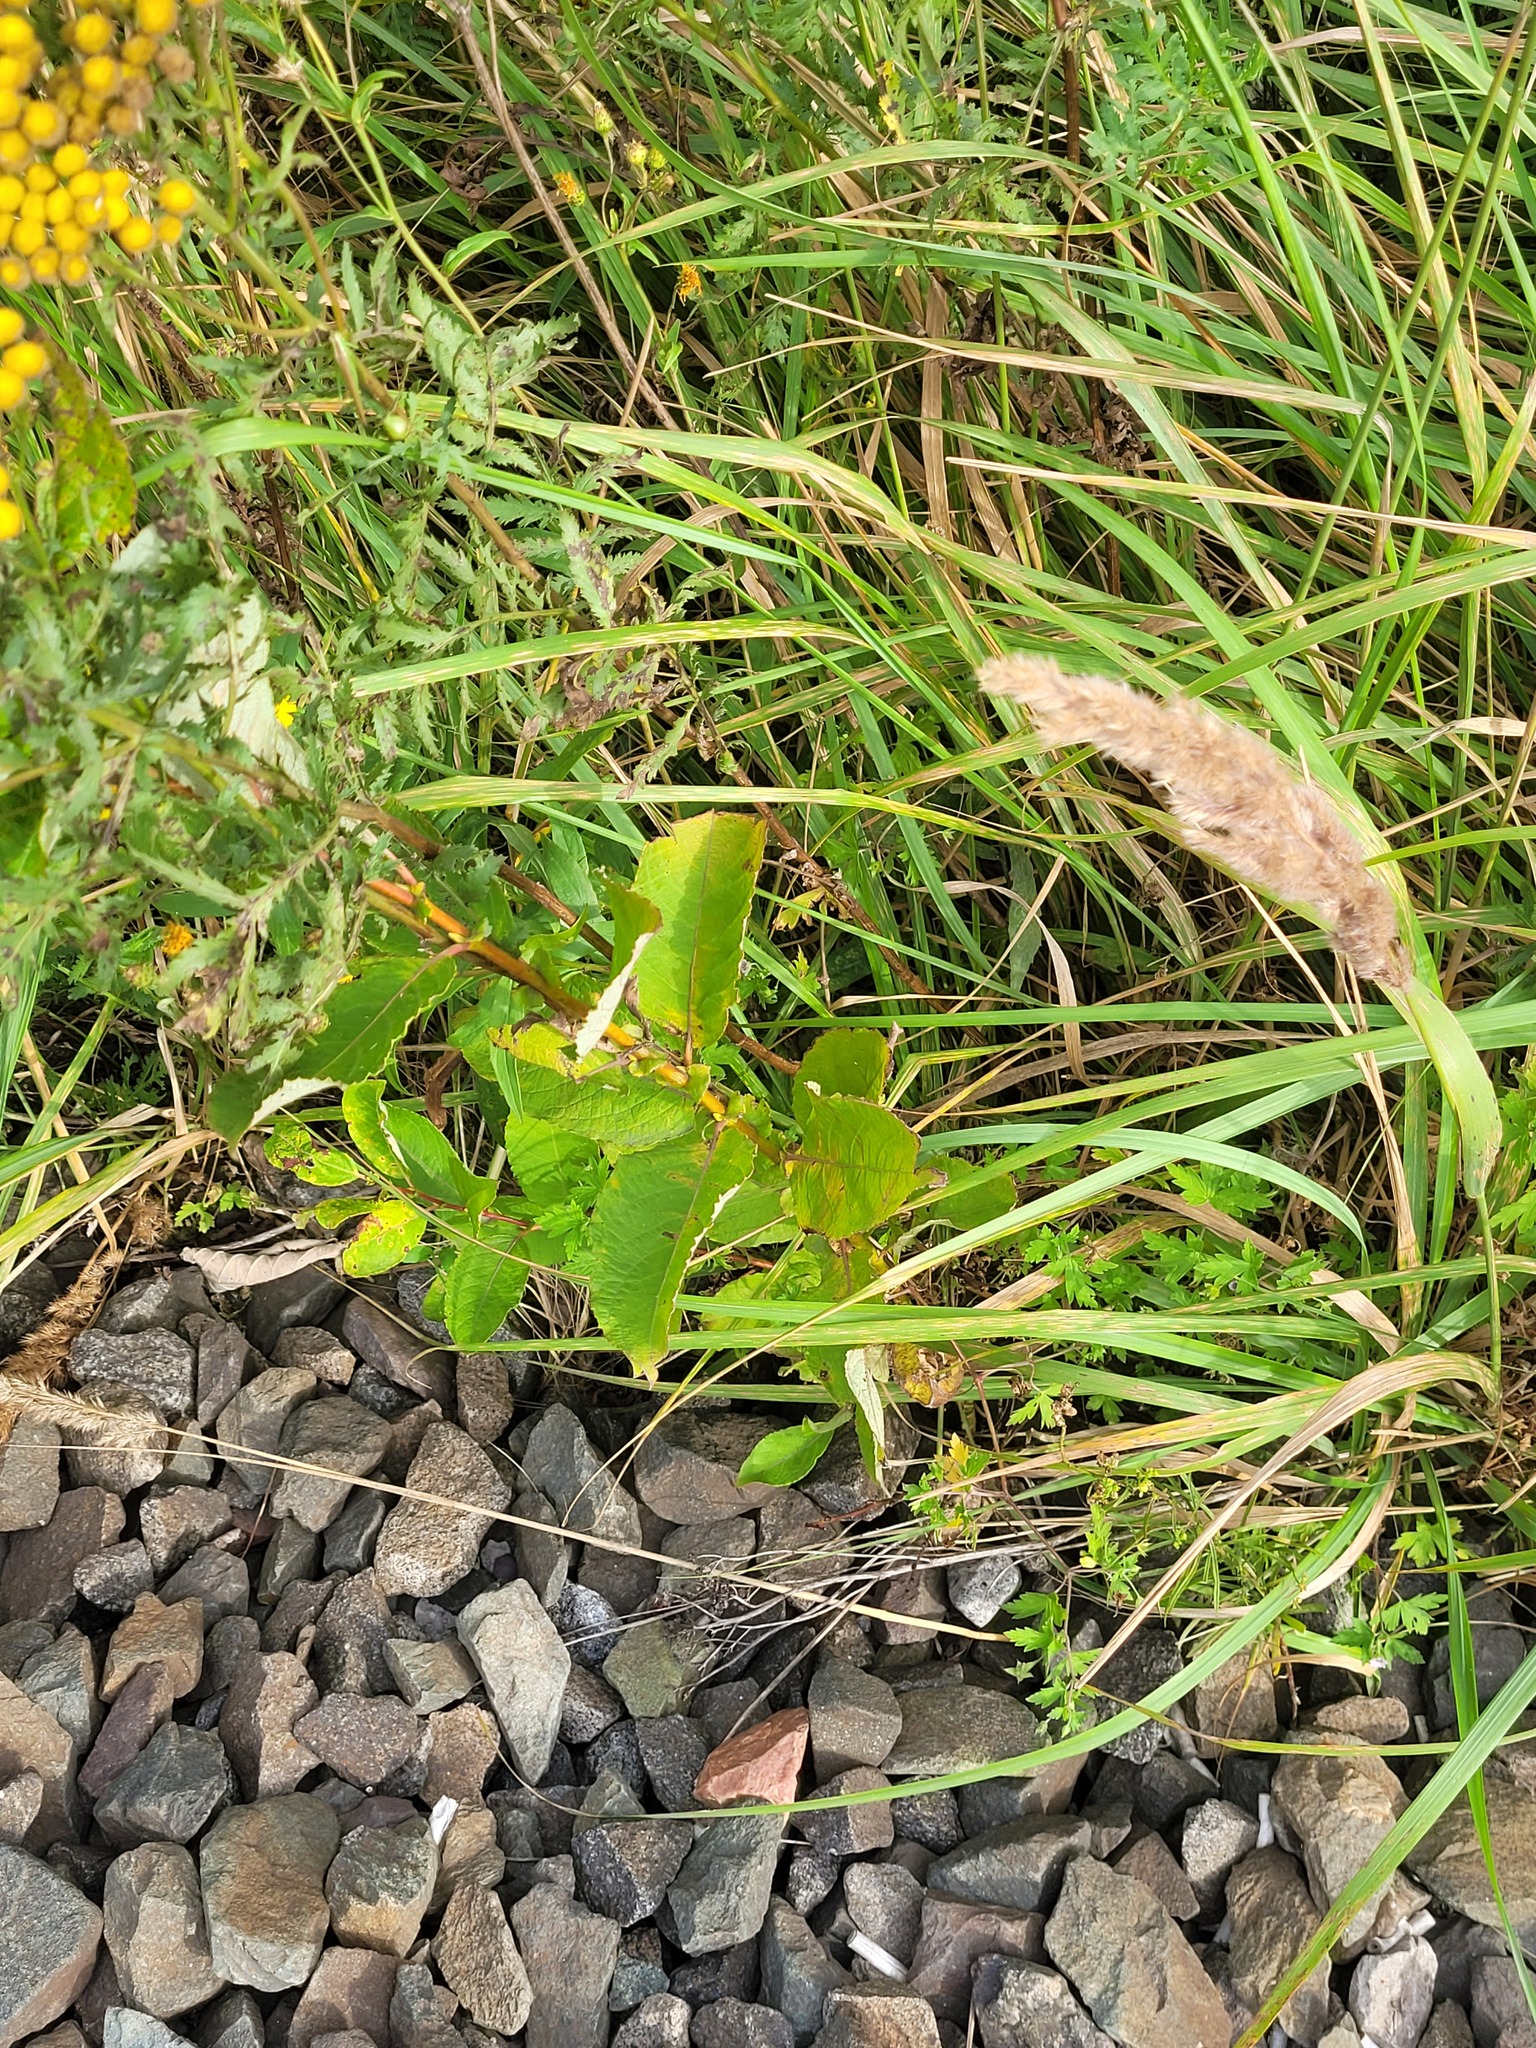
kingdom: Plantae
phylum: Tracheophyta
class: Magnoliopsida
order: Malpighiales
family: Salicaceae
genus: Salix
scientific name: Salix caprea
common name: Goat willow
